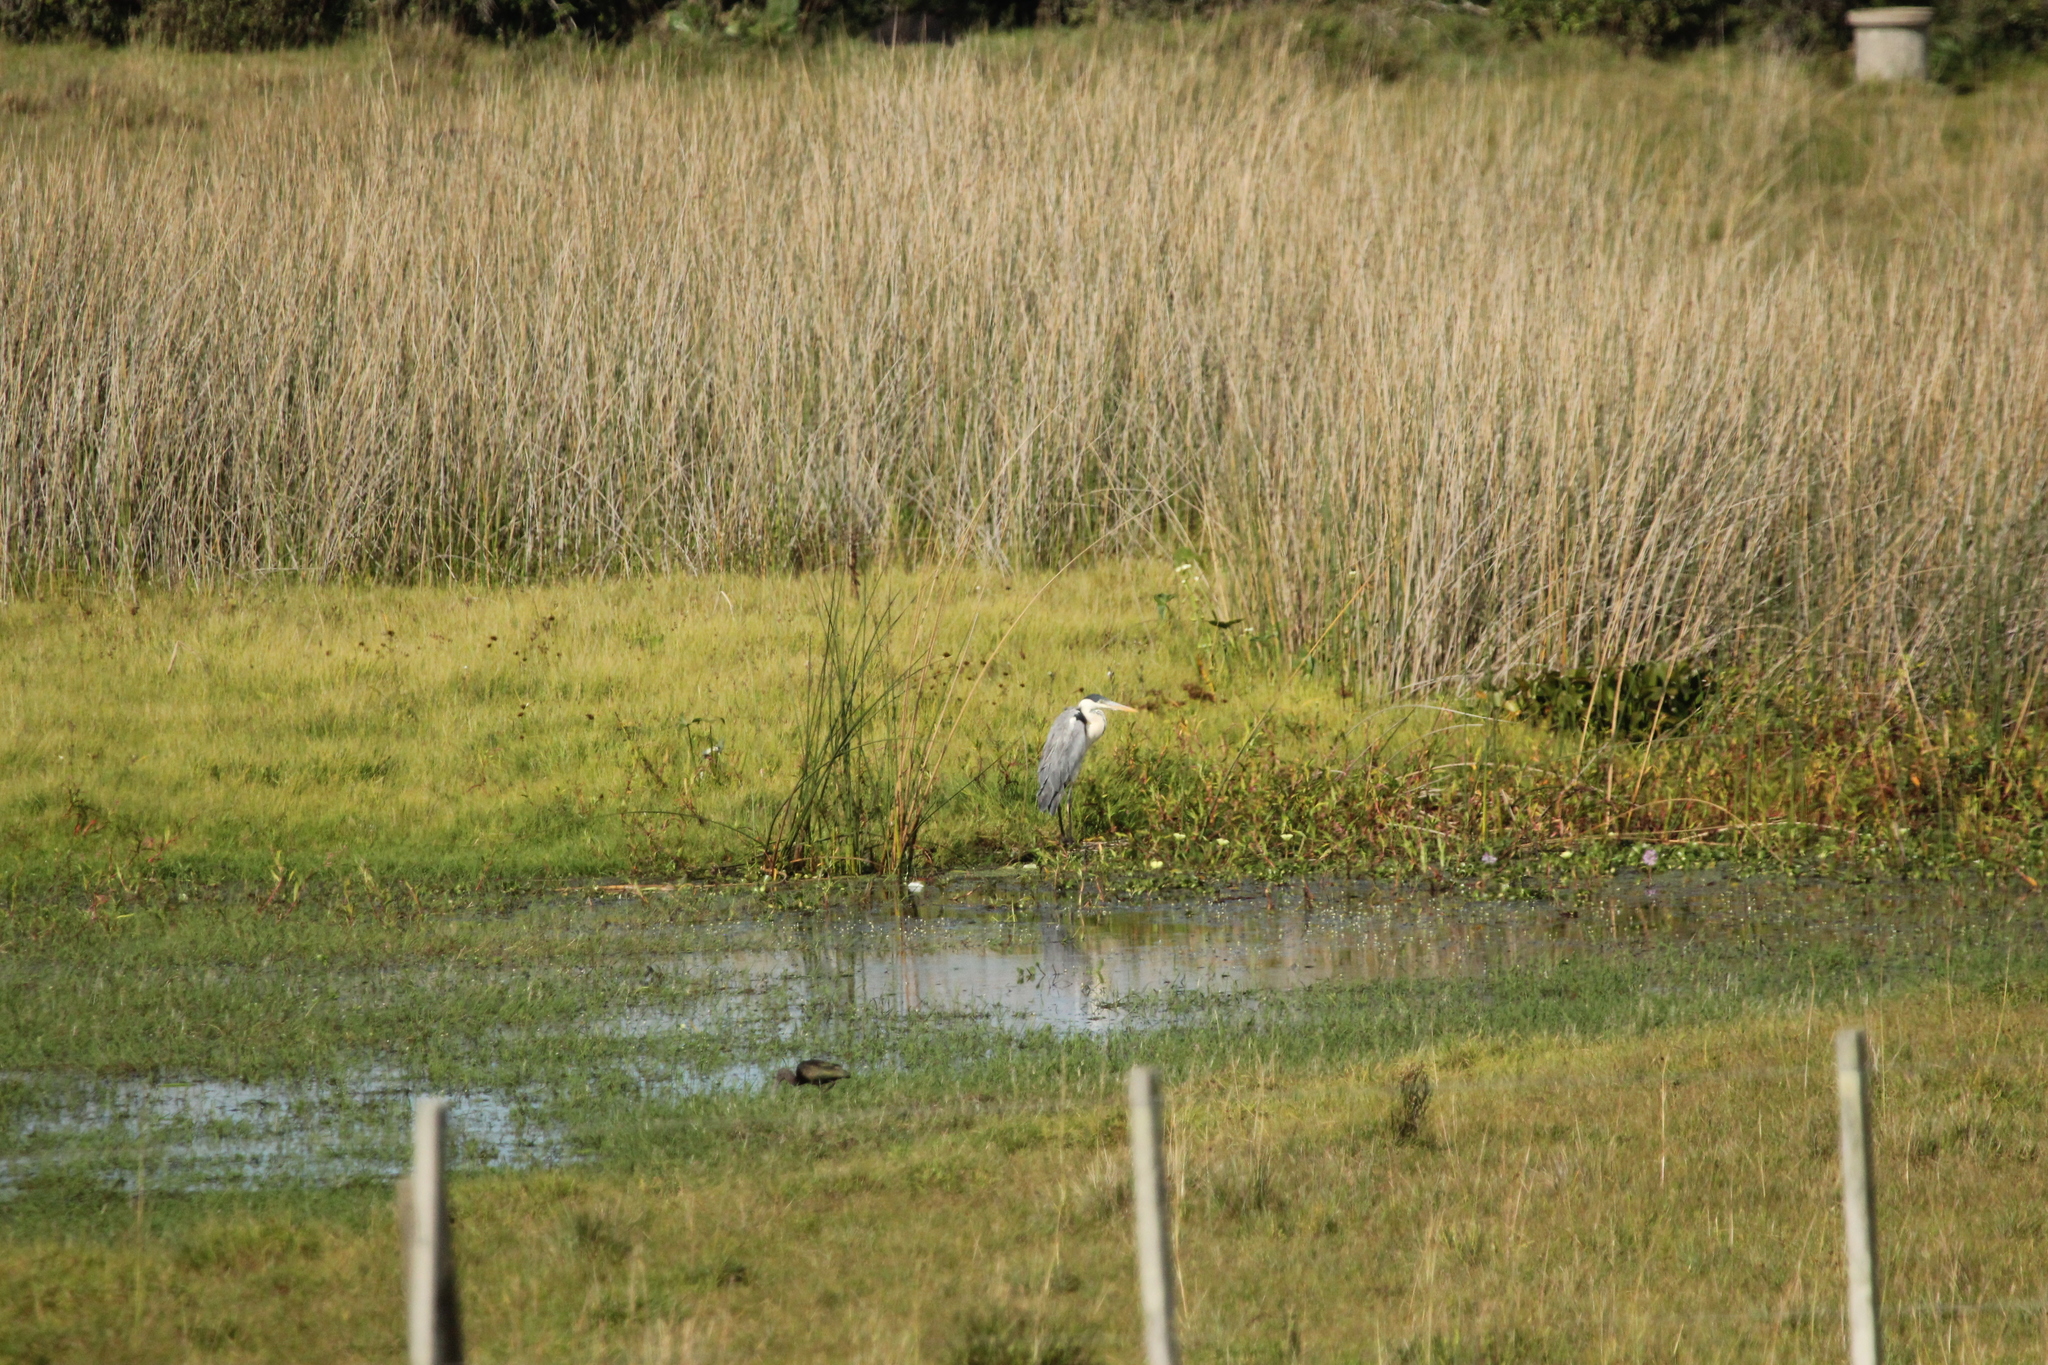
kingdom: Animalia
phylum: Chordata
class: Aves
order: Pelecaniformes
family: Ardeidae
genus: Ardea
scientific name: Ardea cocoi
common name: Cocoi heron
